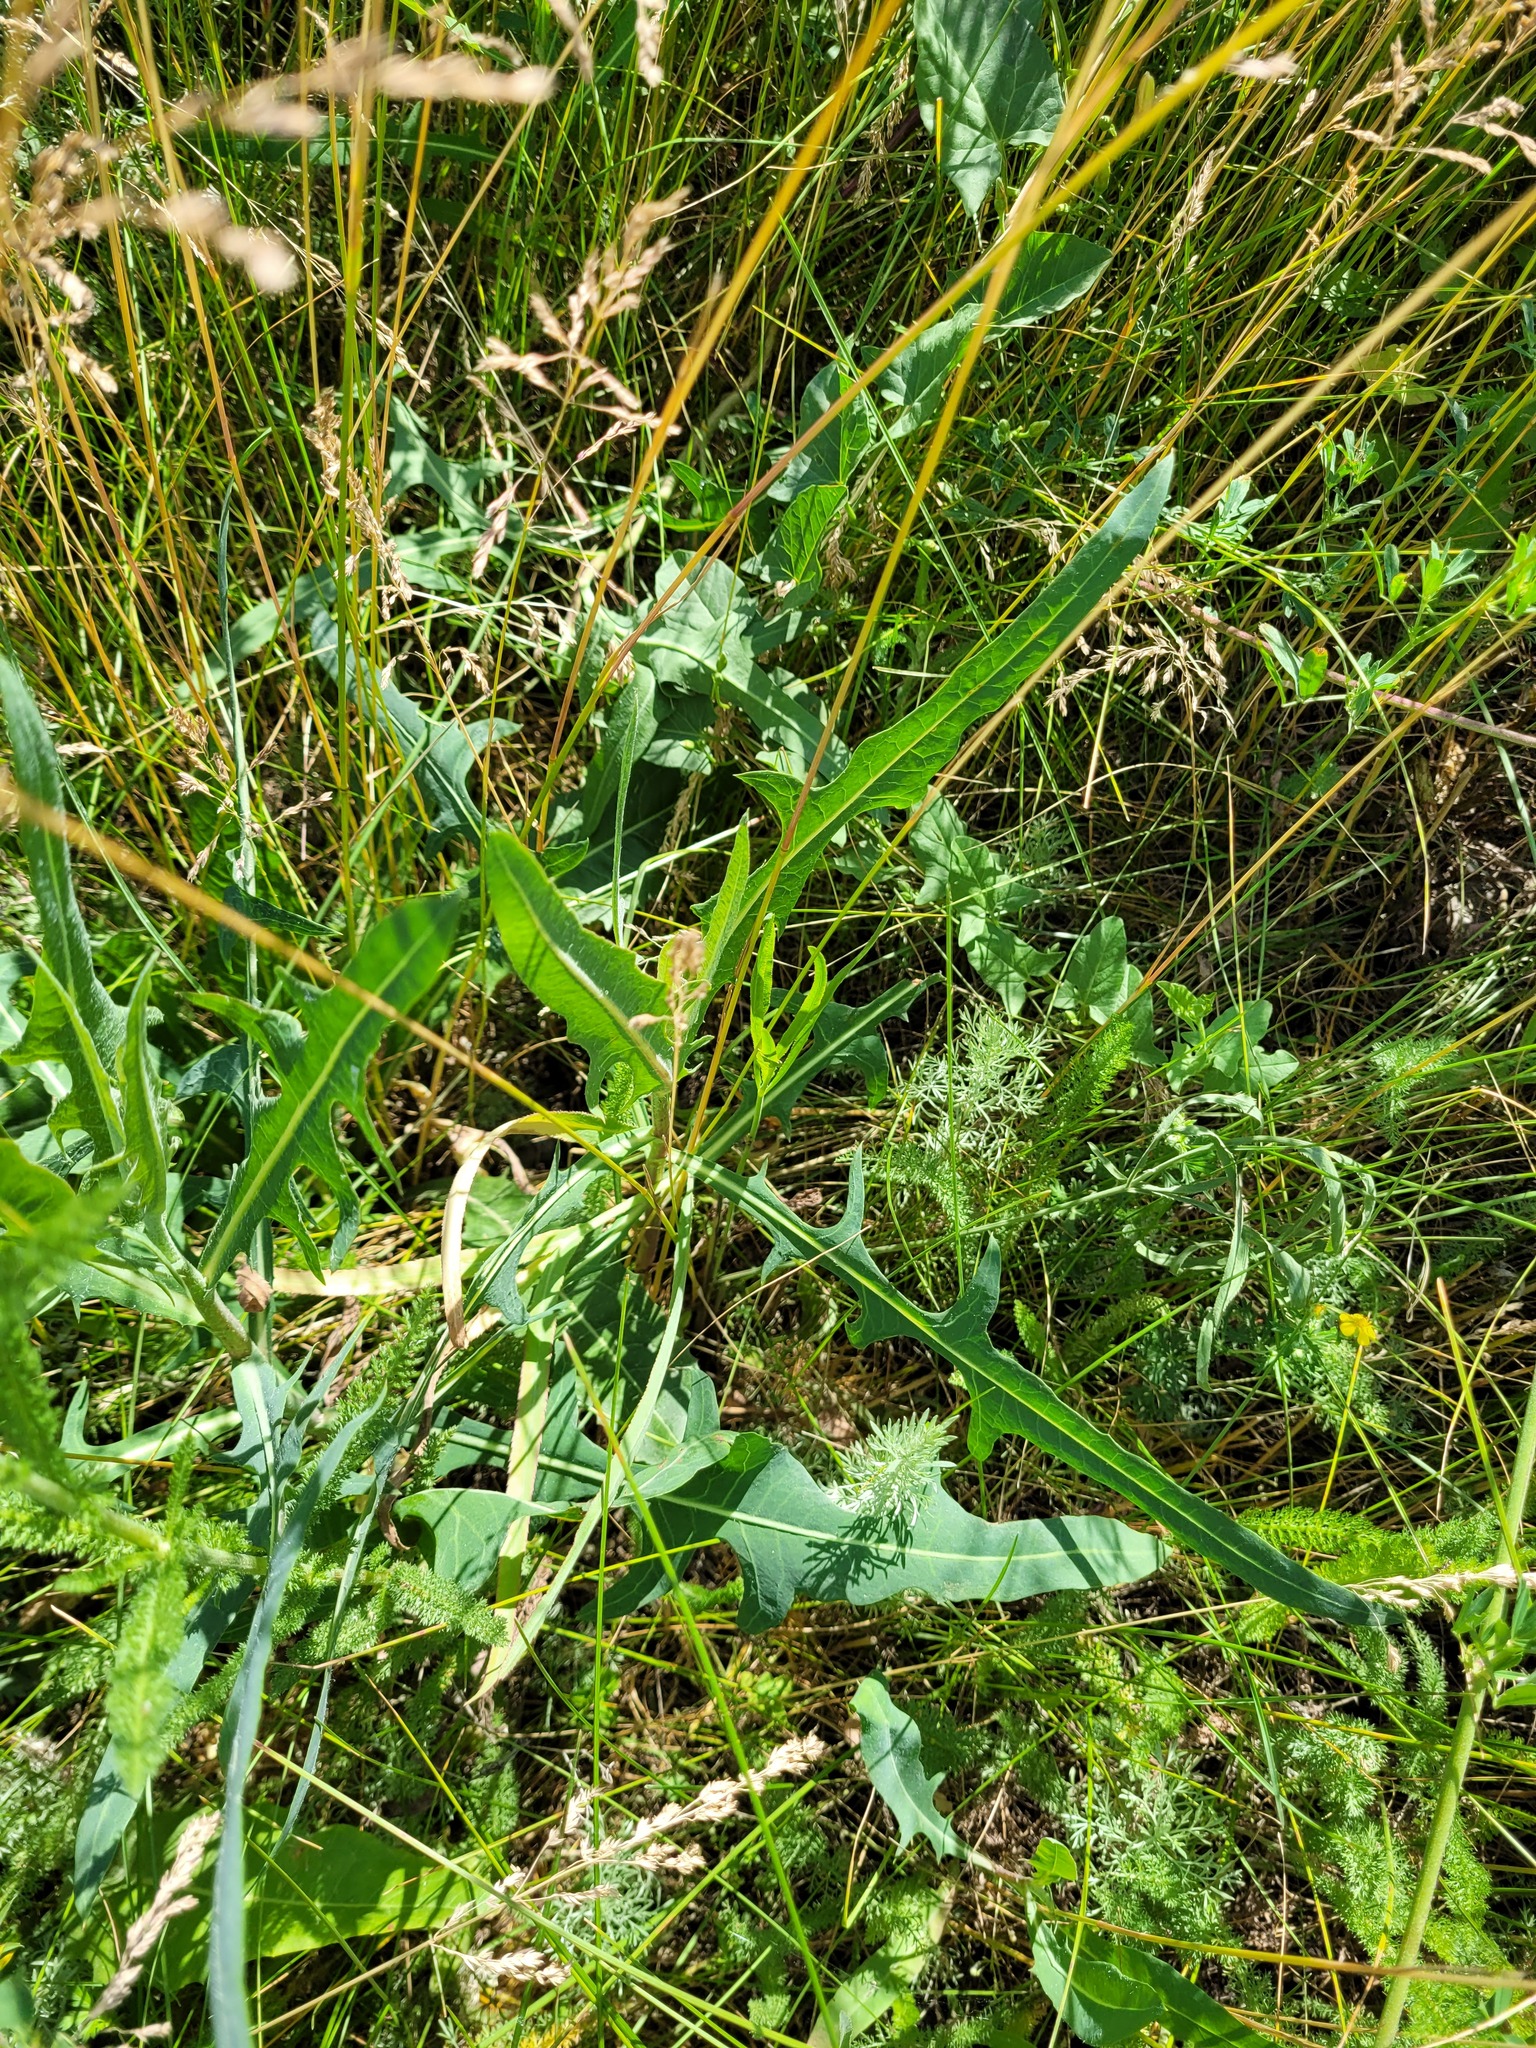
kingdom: Plantae
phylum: Tracheophyta
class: Magnoliopsida
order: Asterales
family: Asteraceae
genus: Lactuca
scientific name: Lactuca tatarica
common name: Blue lettuce
